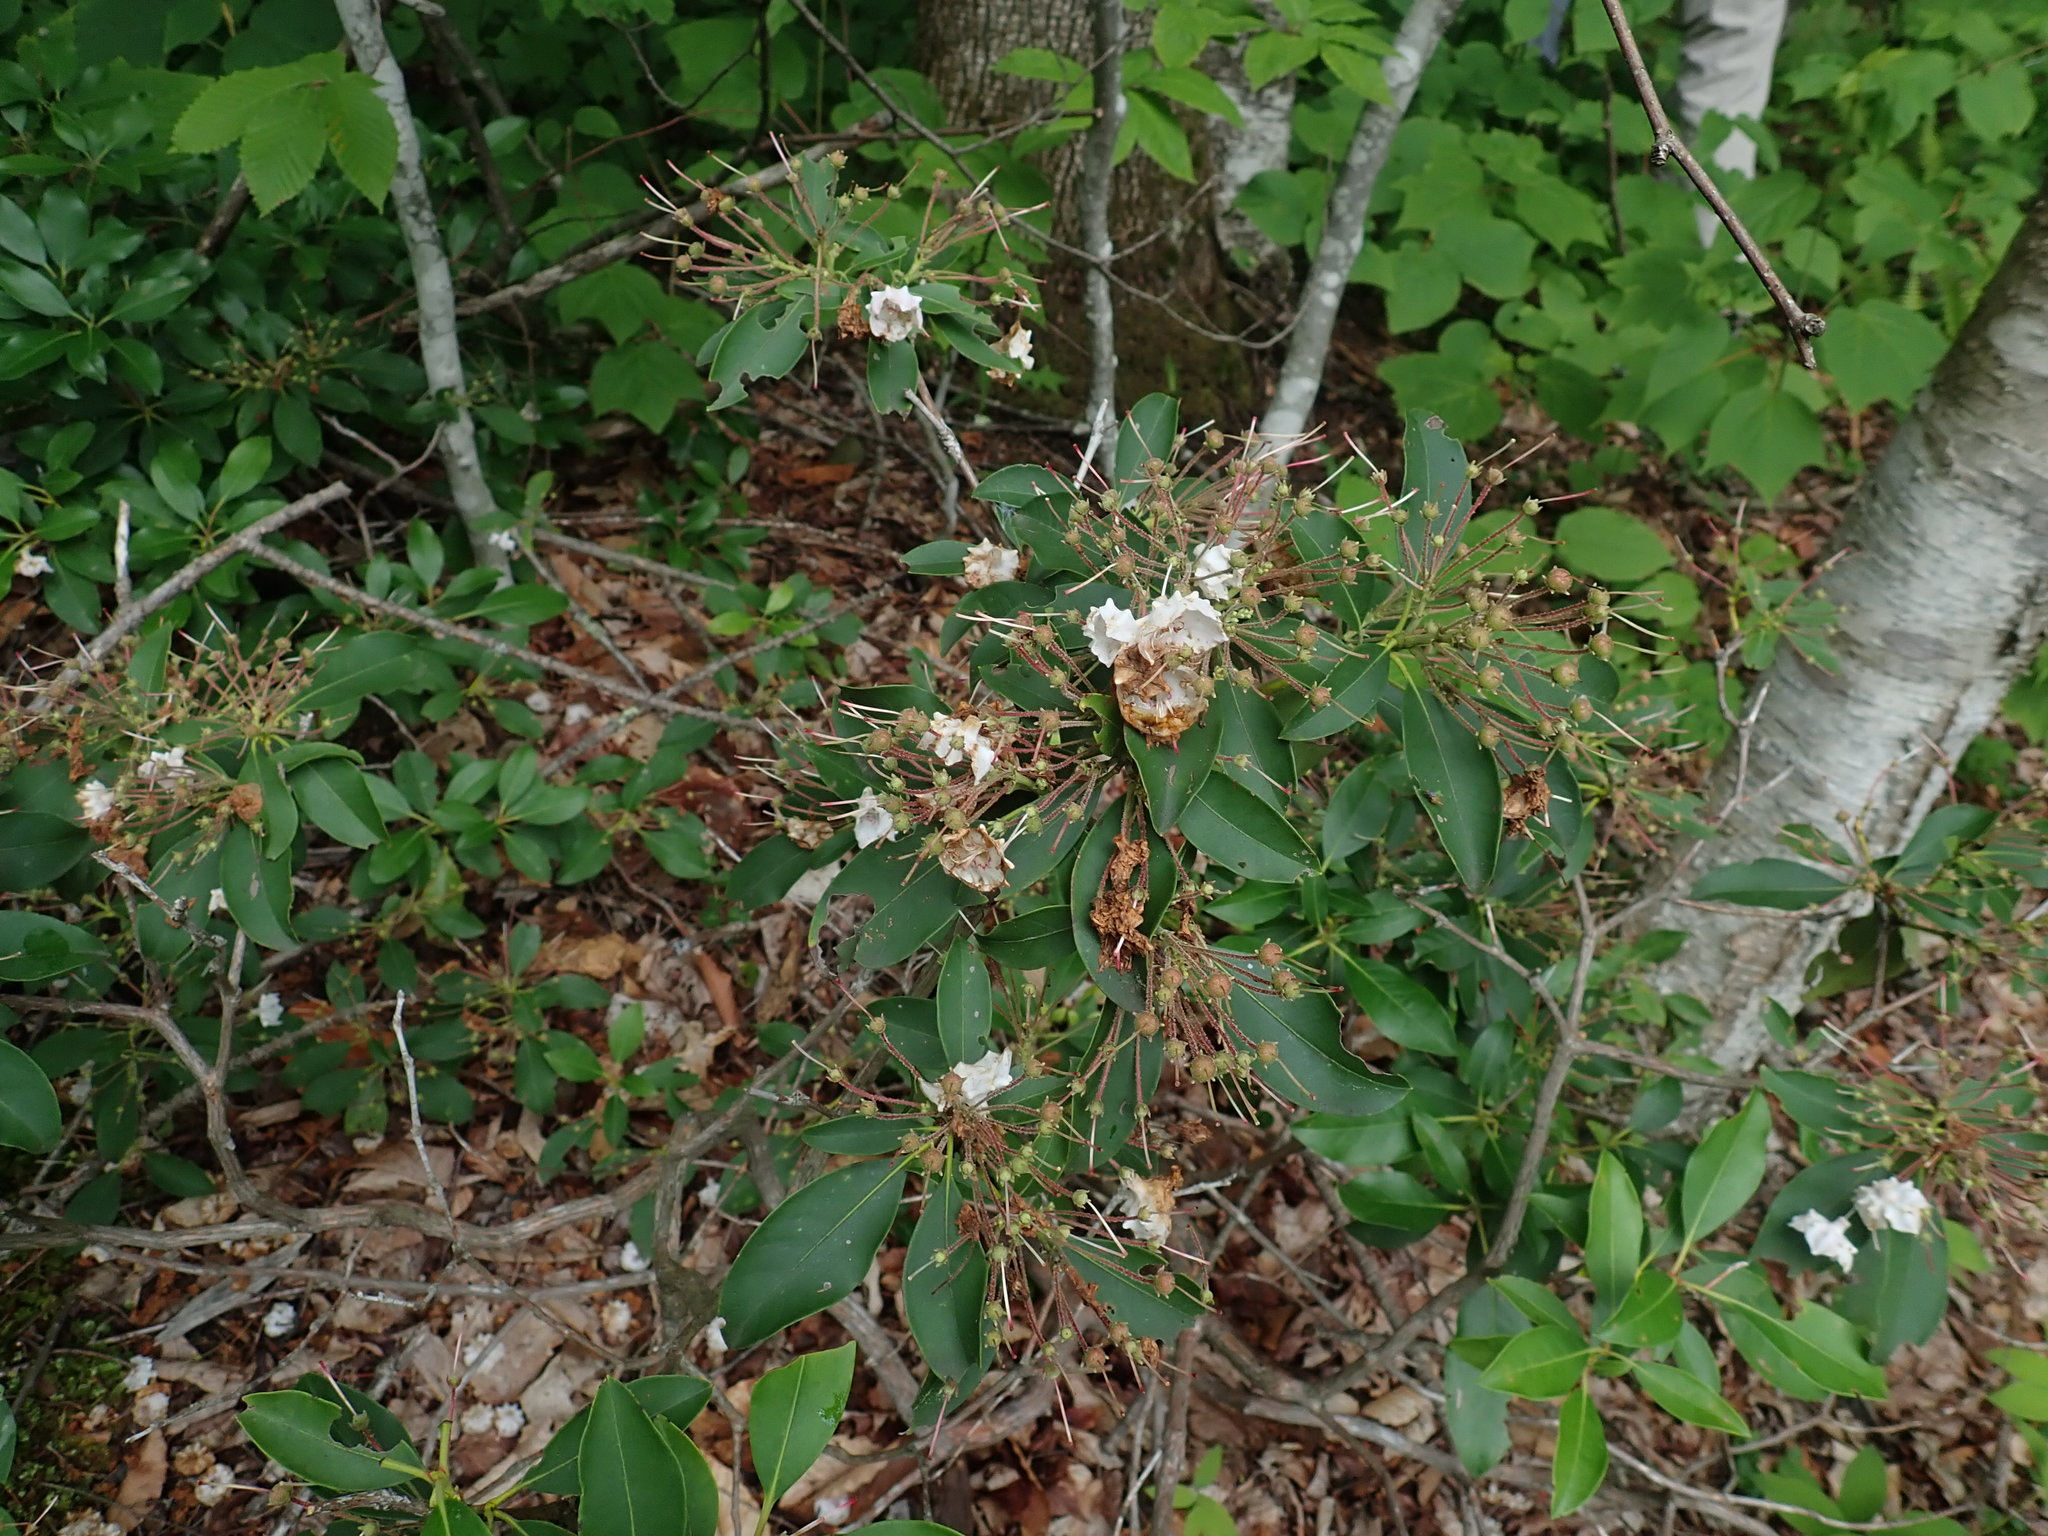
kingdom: Plantae
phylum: Tracheophyta
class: Magnoliopsida
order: Ericales
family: Ericaceae
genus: Kalmia
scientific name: Kalmia latifolia
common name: Mountain-laurel
